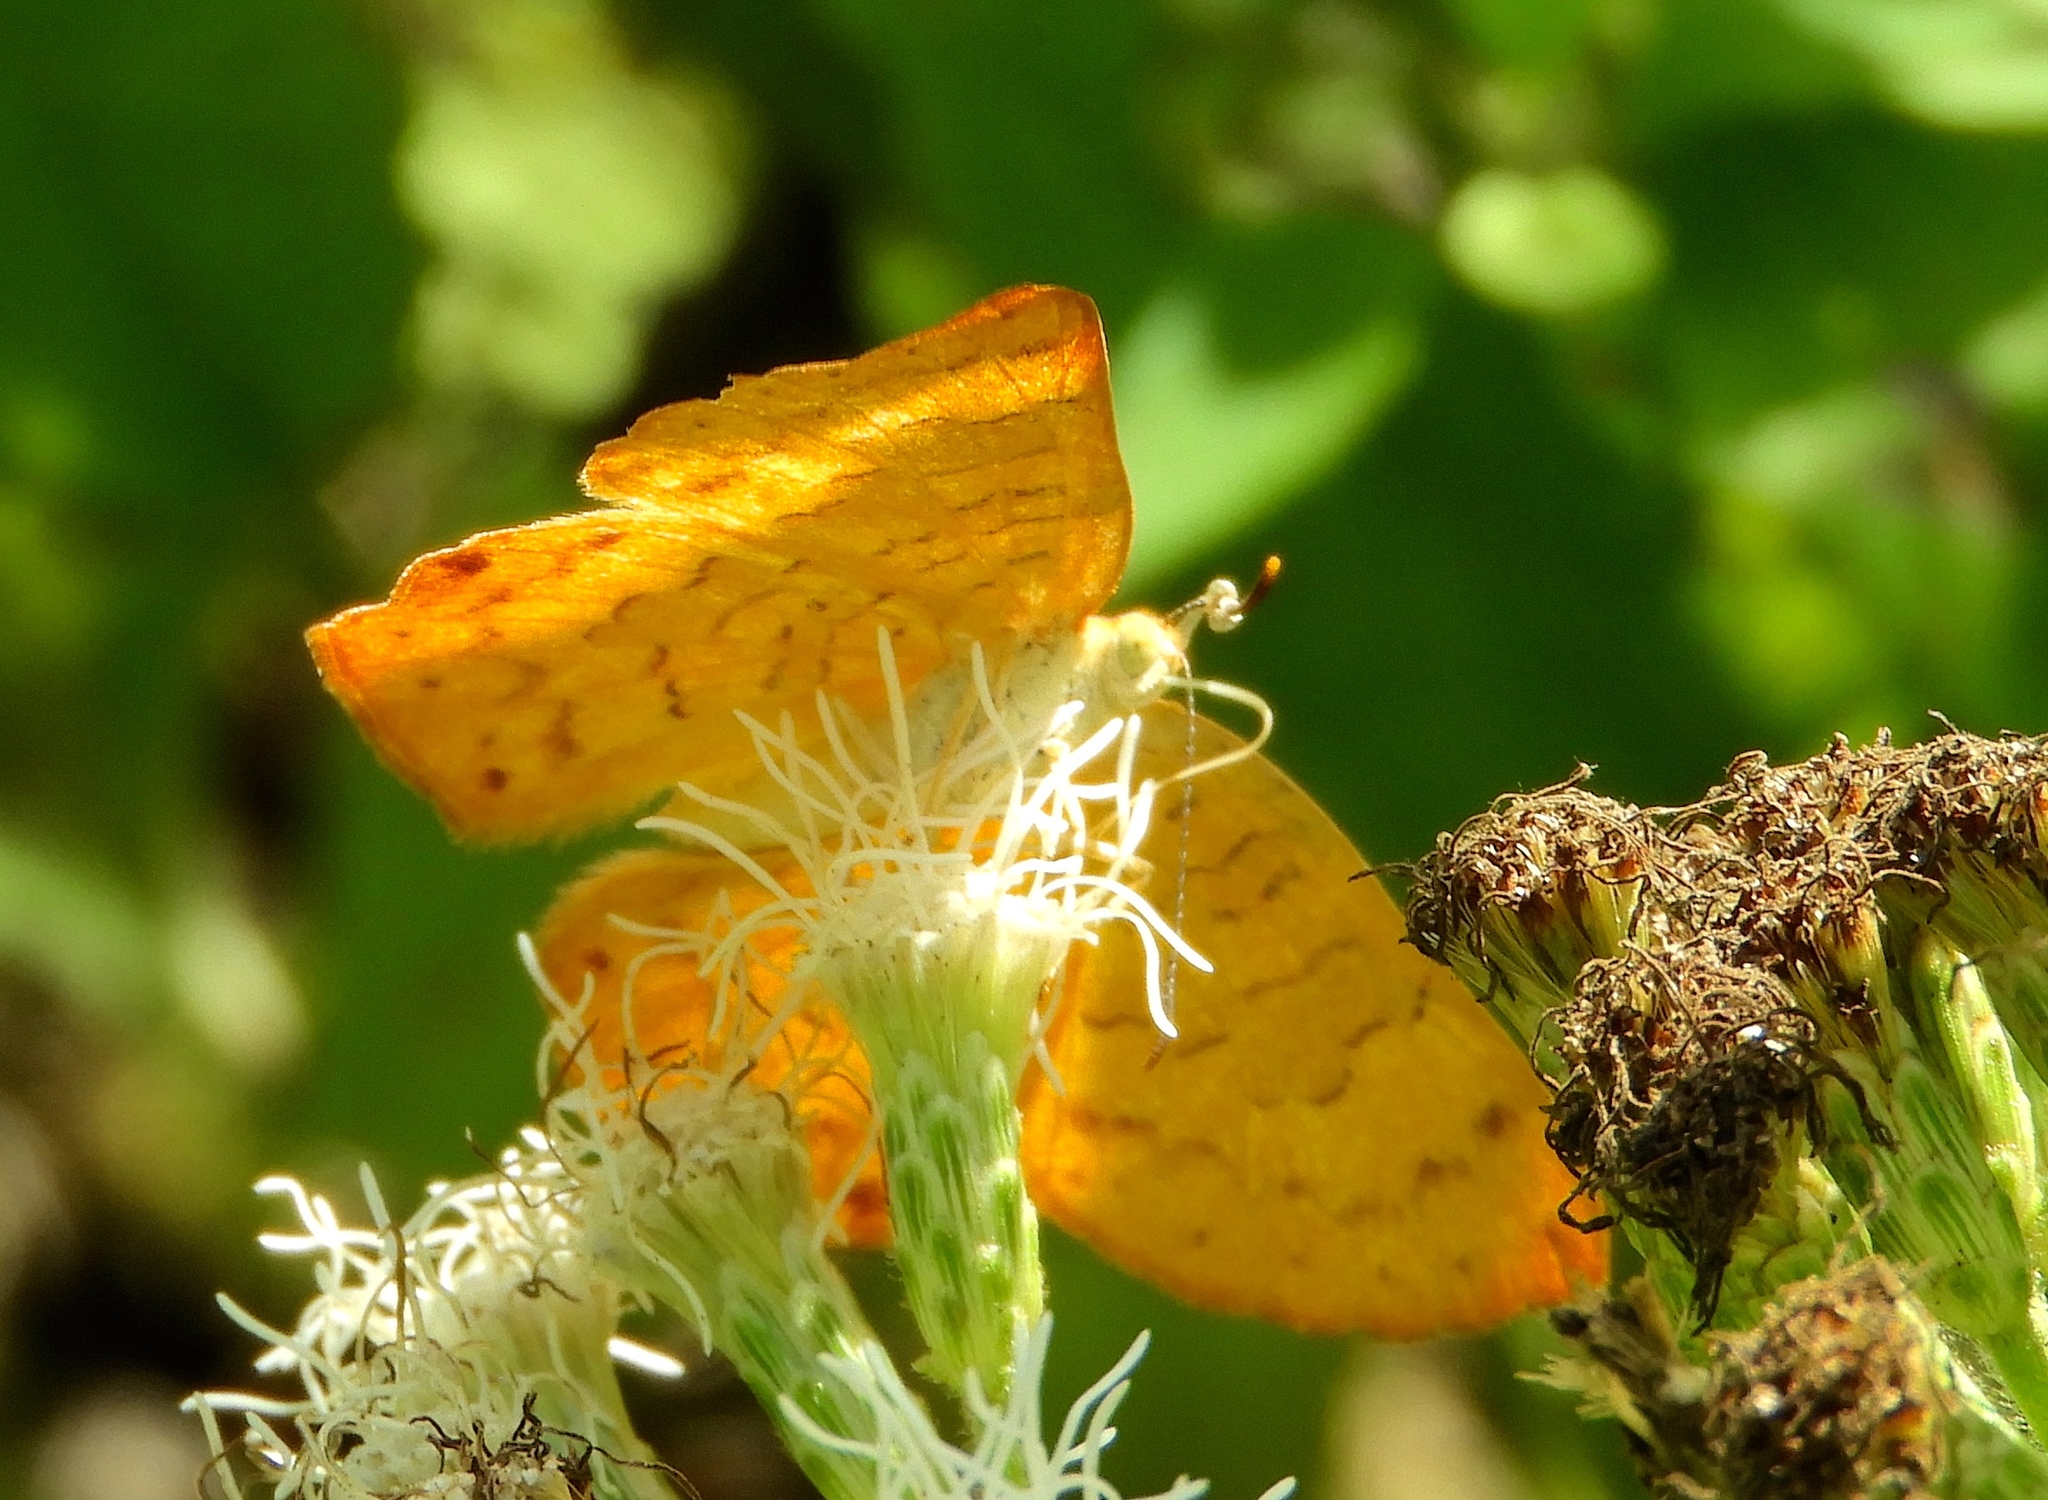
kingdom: Animalia
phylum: Arthropoda
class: Insecta
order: Lepidoptera
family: Lycaenidae
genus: Emesis
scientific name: Emesis
